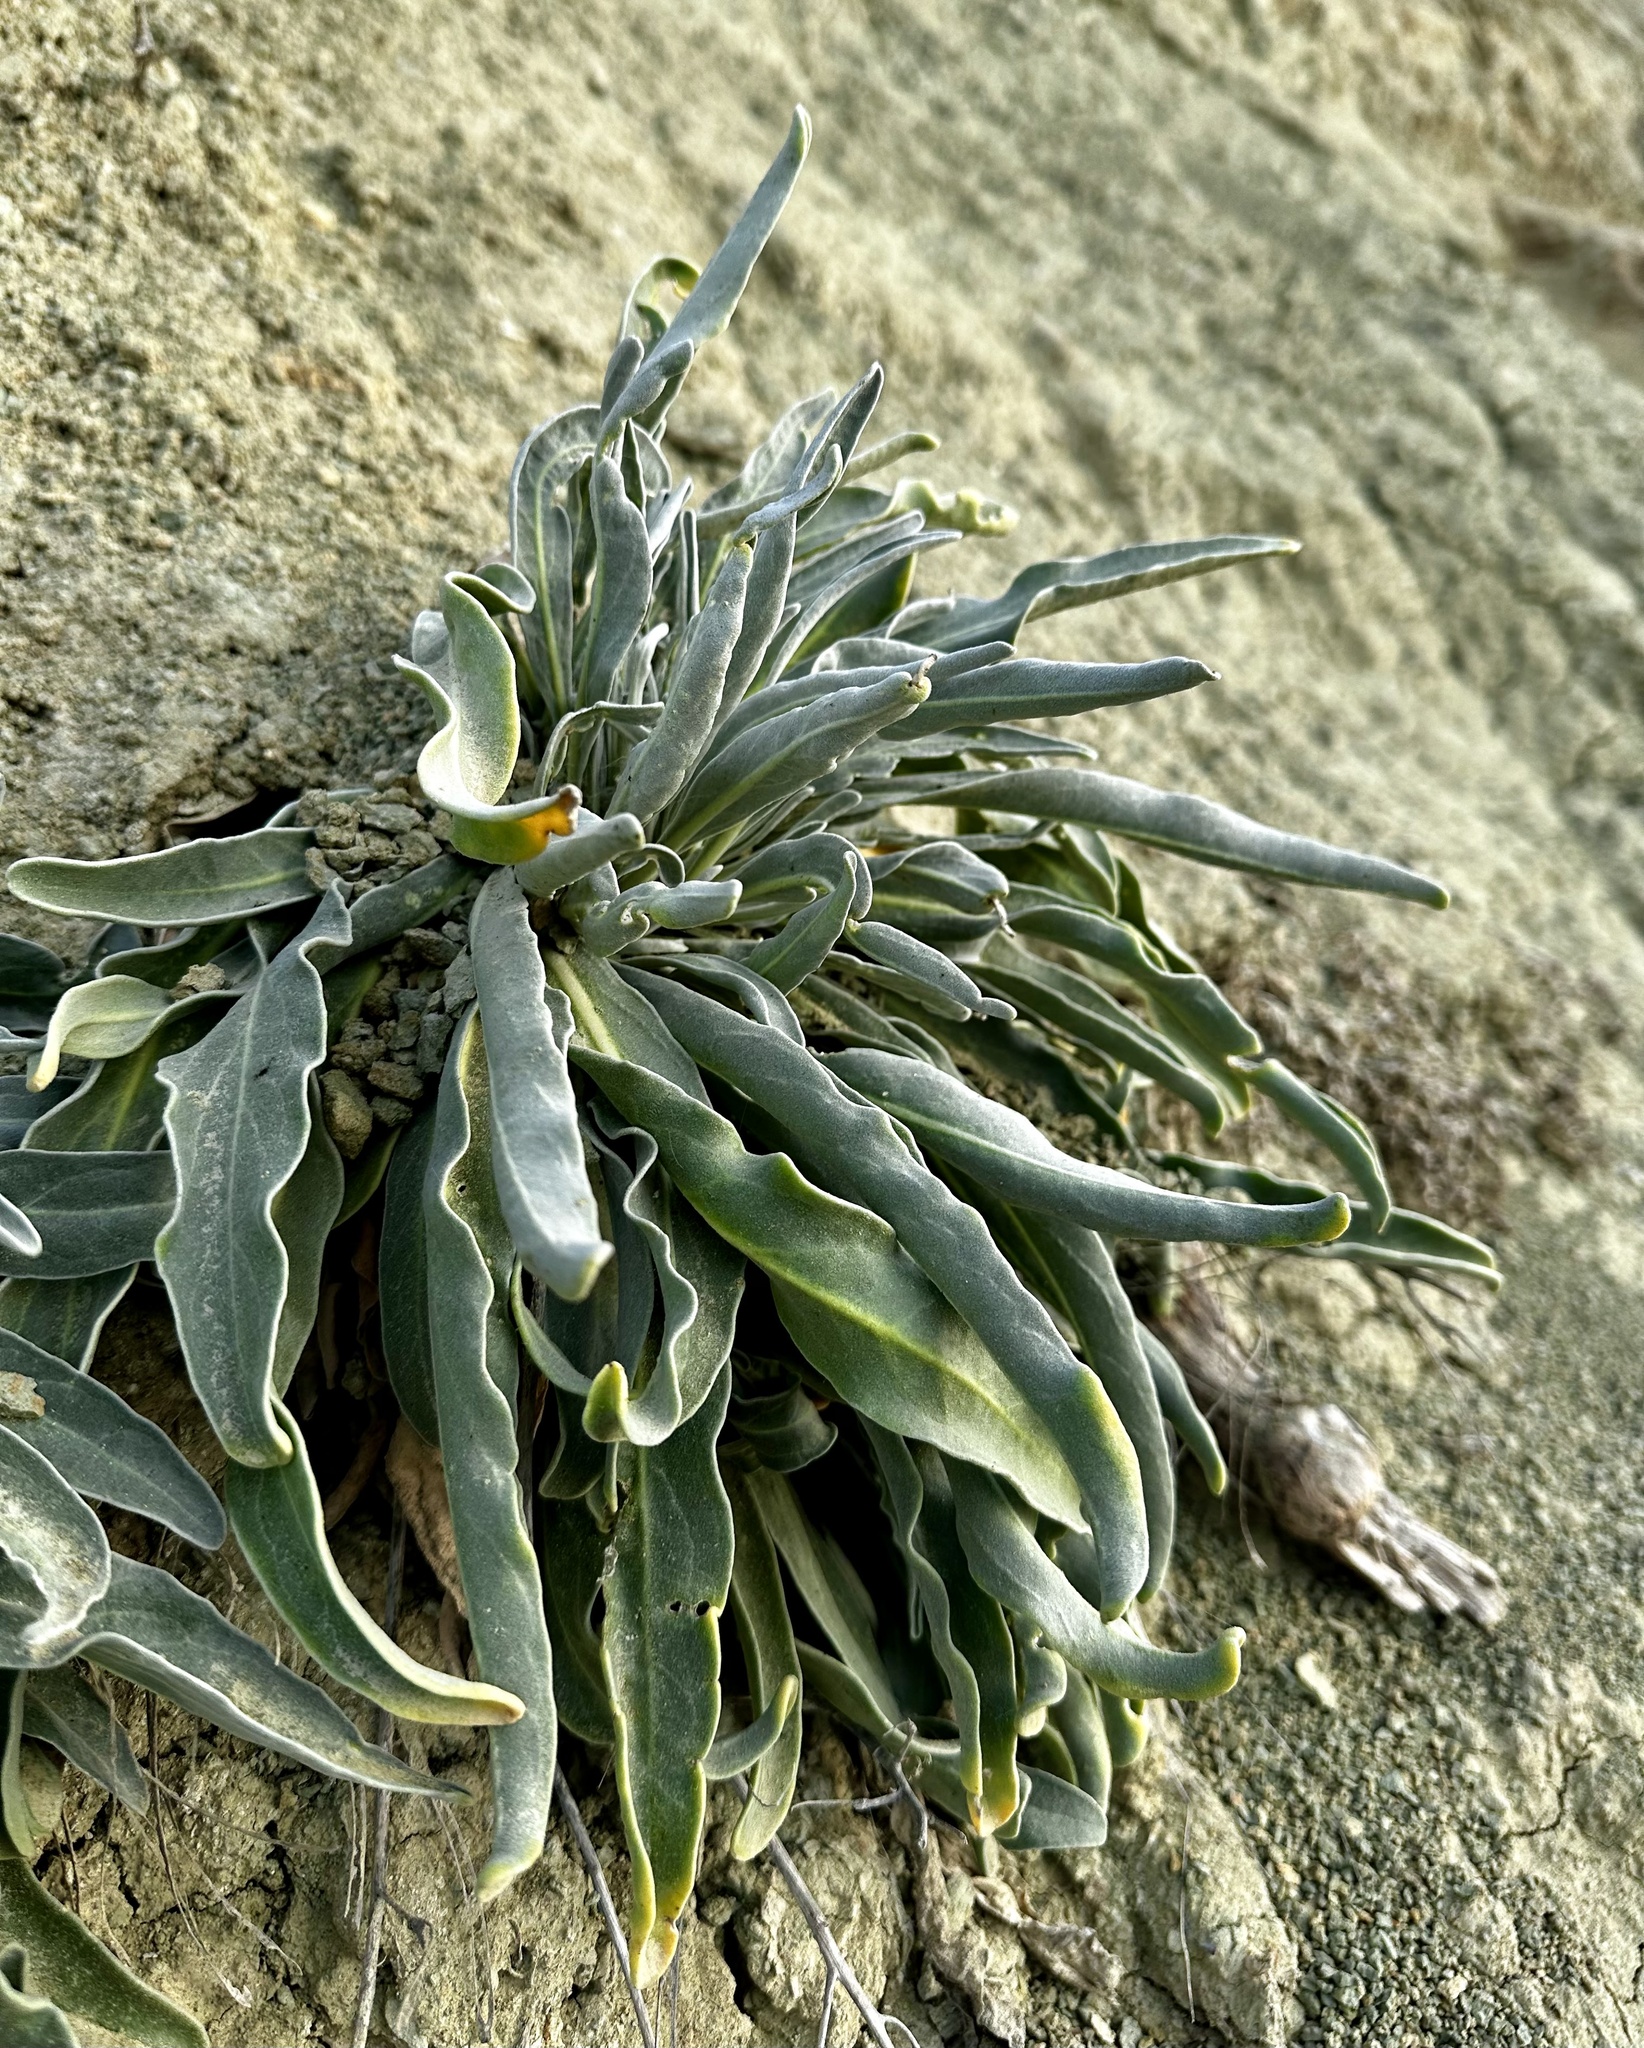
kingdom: Plantae
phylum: Tracheophyta
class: Magnoliopsida
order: Brassicales
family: Brassicaceae
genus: Matthiola
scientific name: Matthiola incana
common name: Hoary stock
